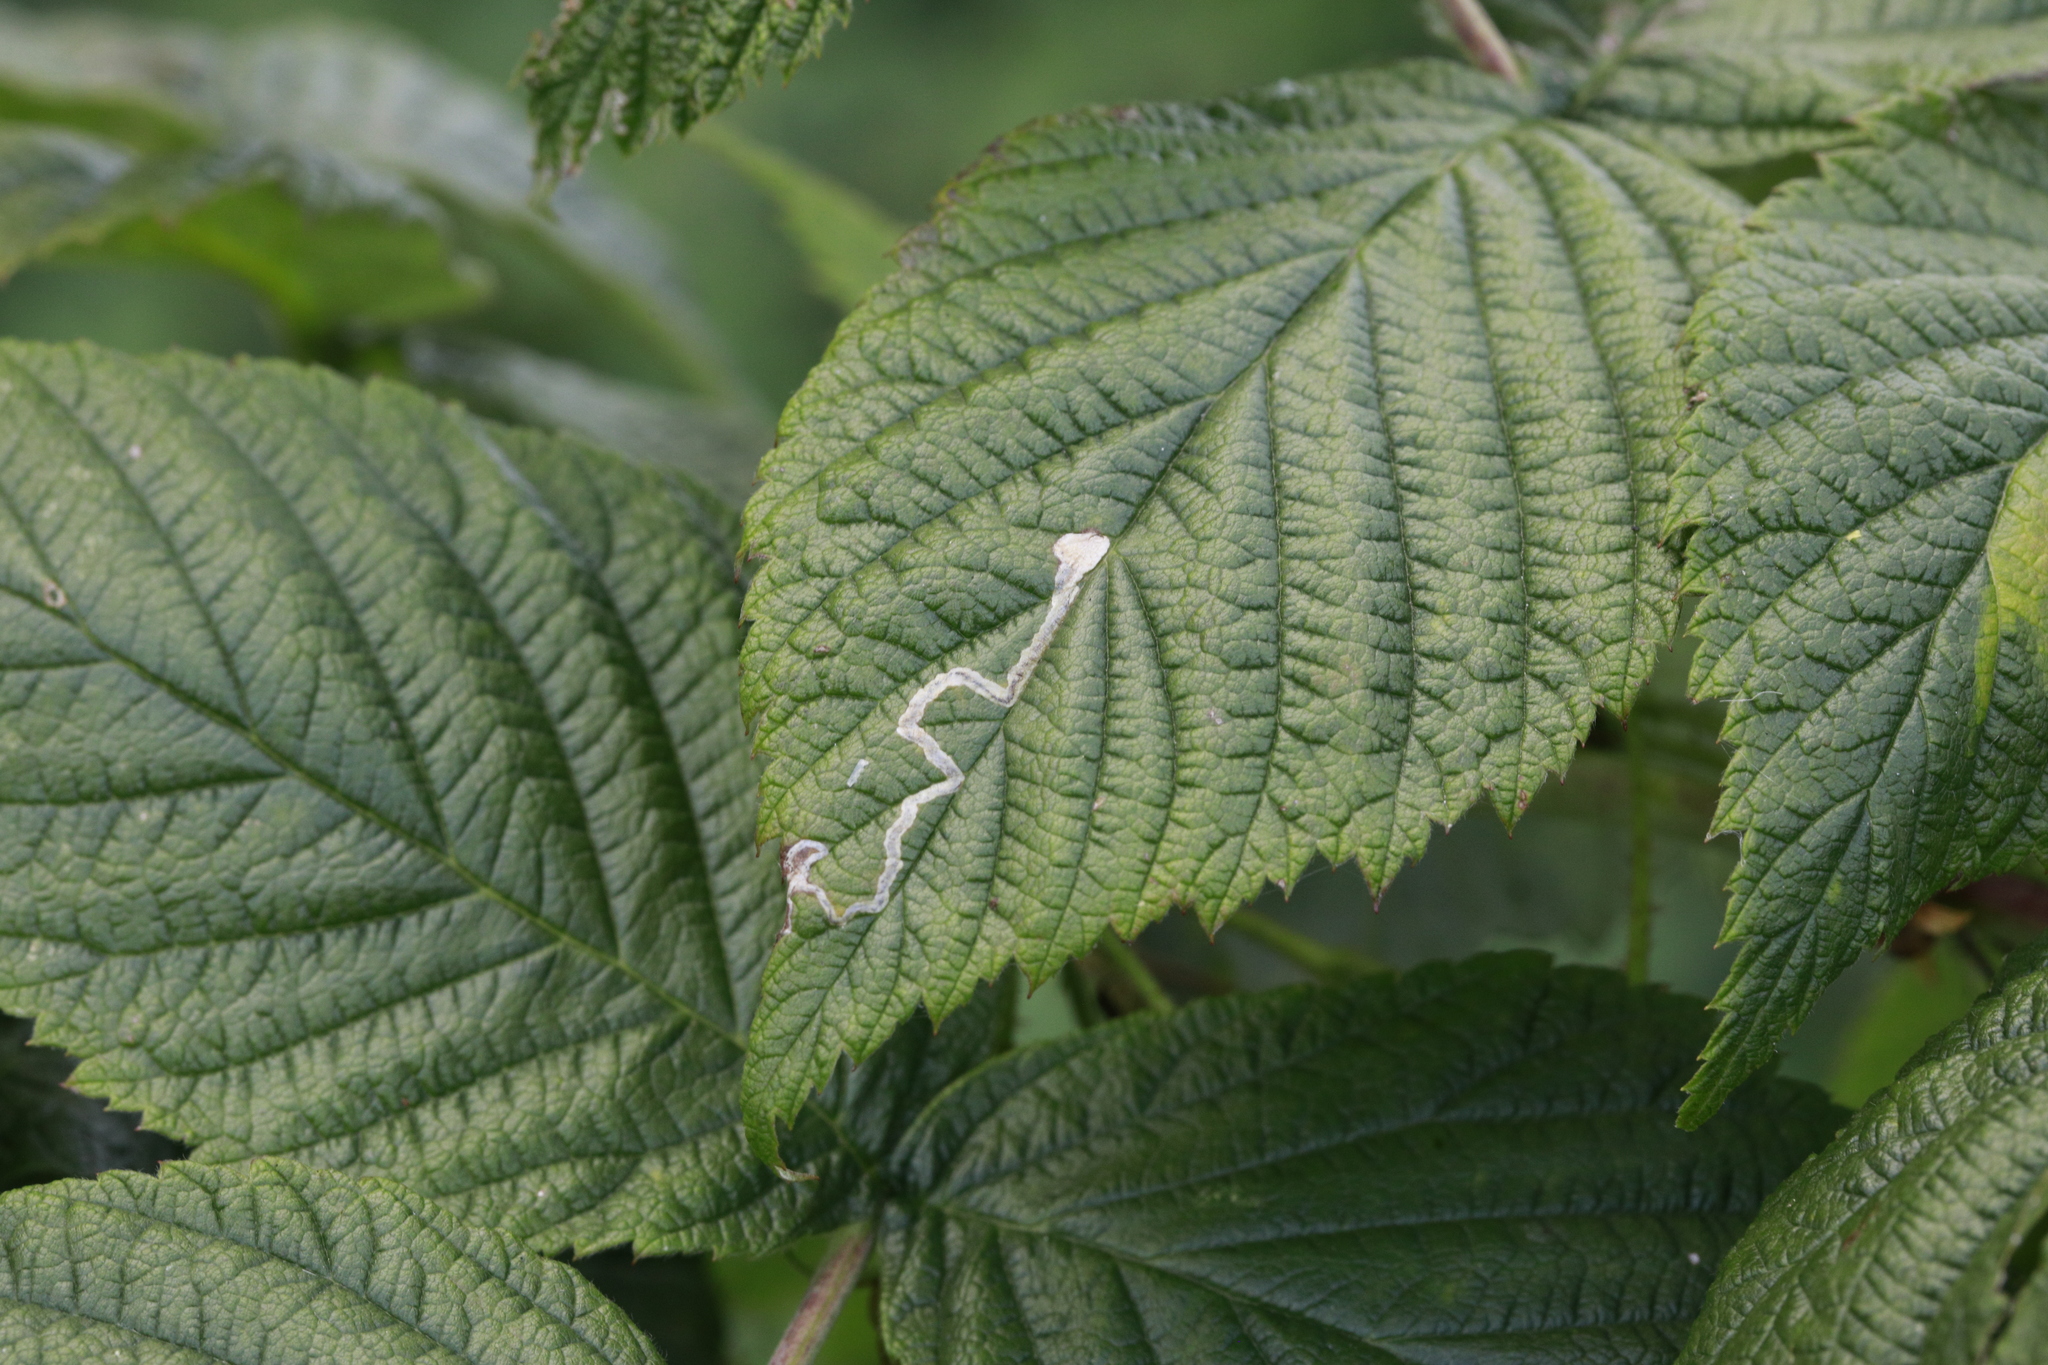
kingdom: Animalia
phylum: Arthropoda
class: Insecta
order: Lepidoptera
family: Nepticulidae
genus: Stigmella
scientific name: Stigmella aurella
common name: Golden pigmy
